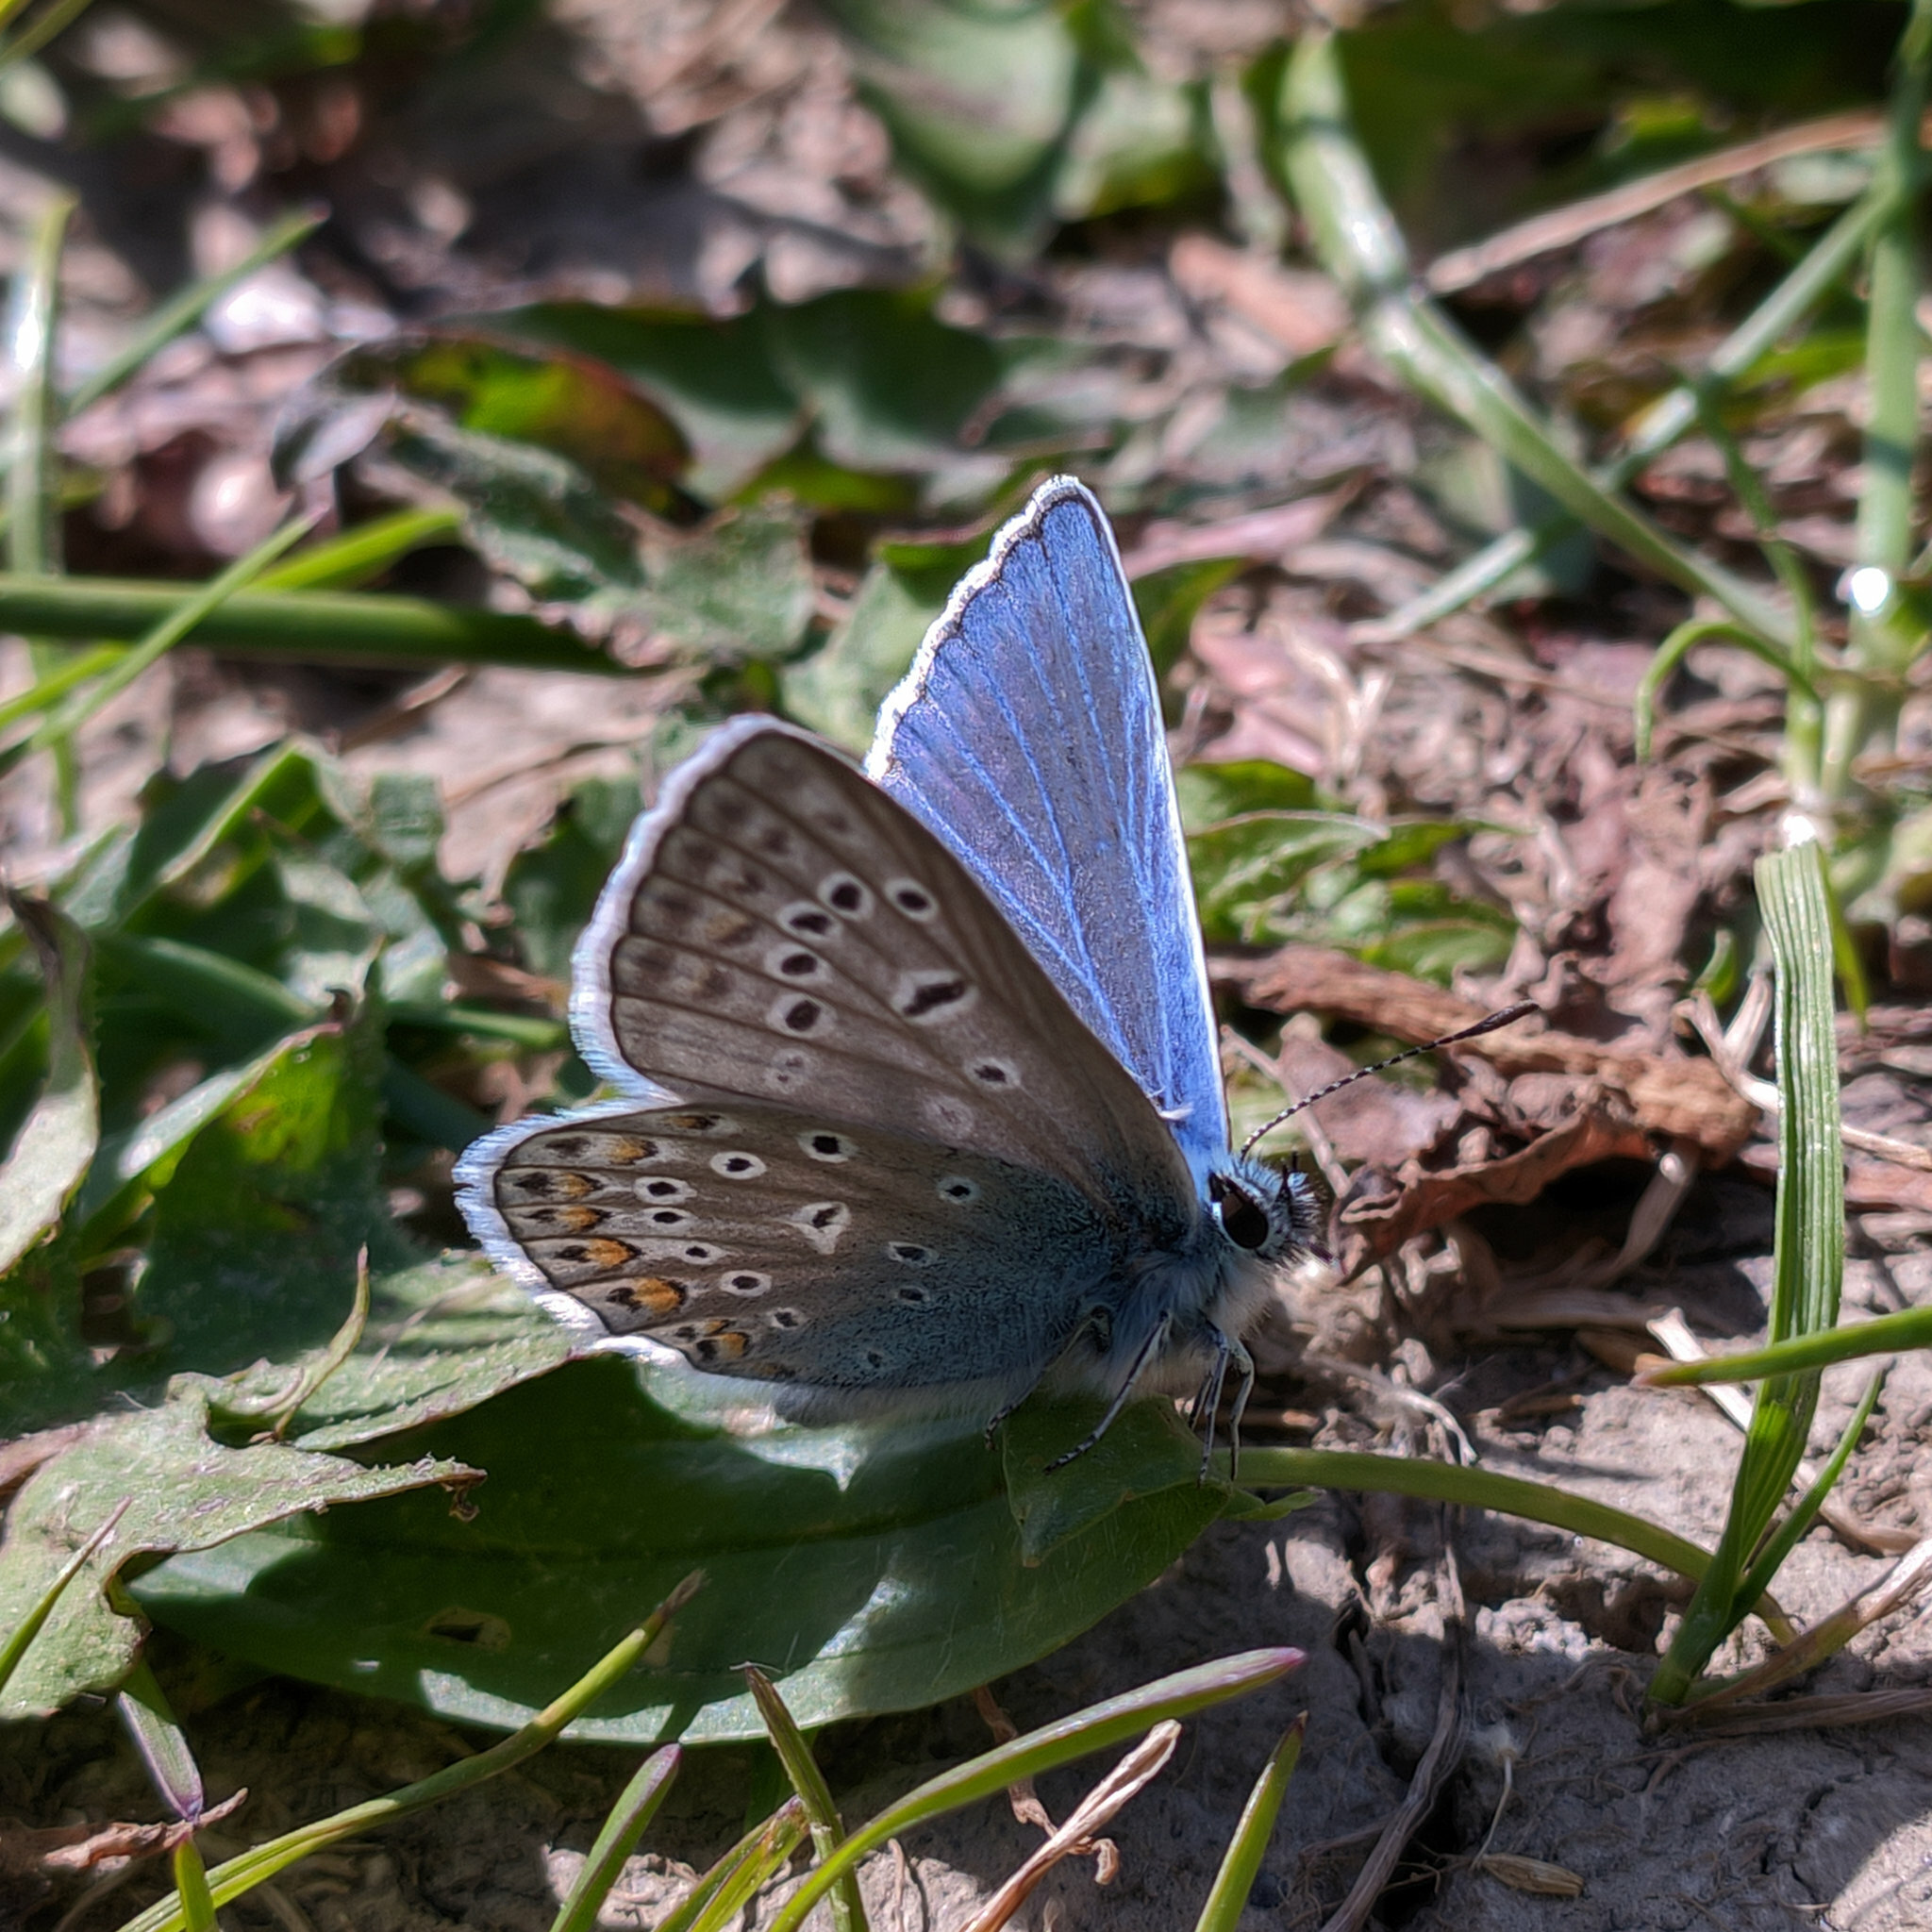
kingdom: Animalia
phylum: Arthropoda
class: Insecta
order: Lepidoptera
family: Lycaenidae
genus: Polyommatus
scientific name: Polyommatus icarus
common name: Common blue
